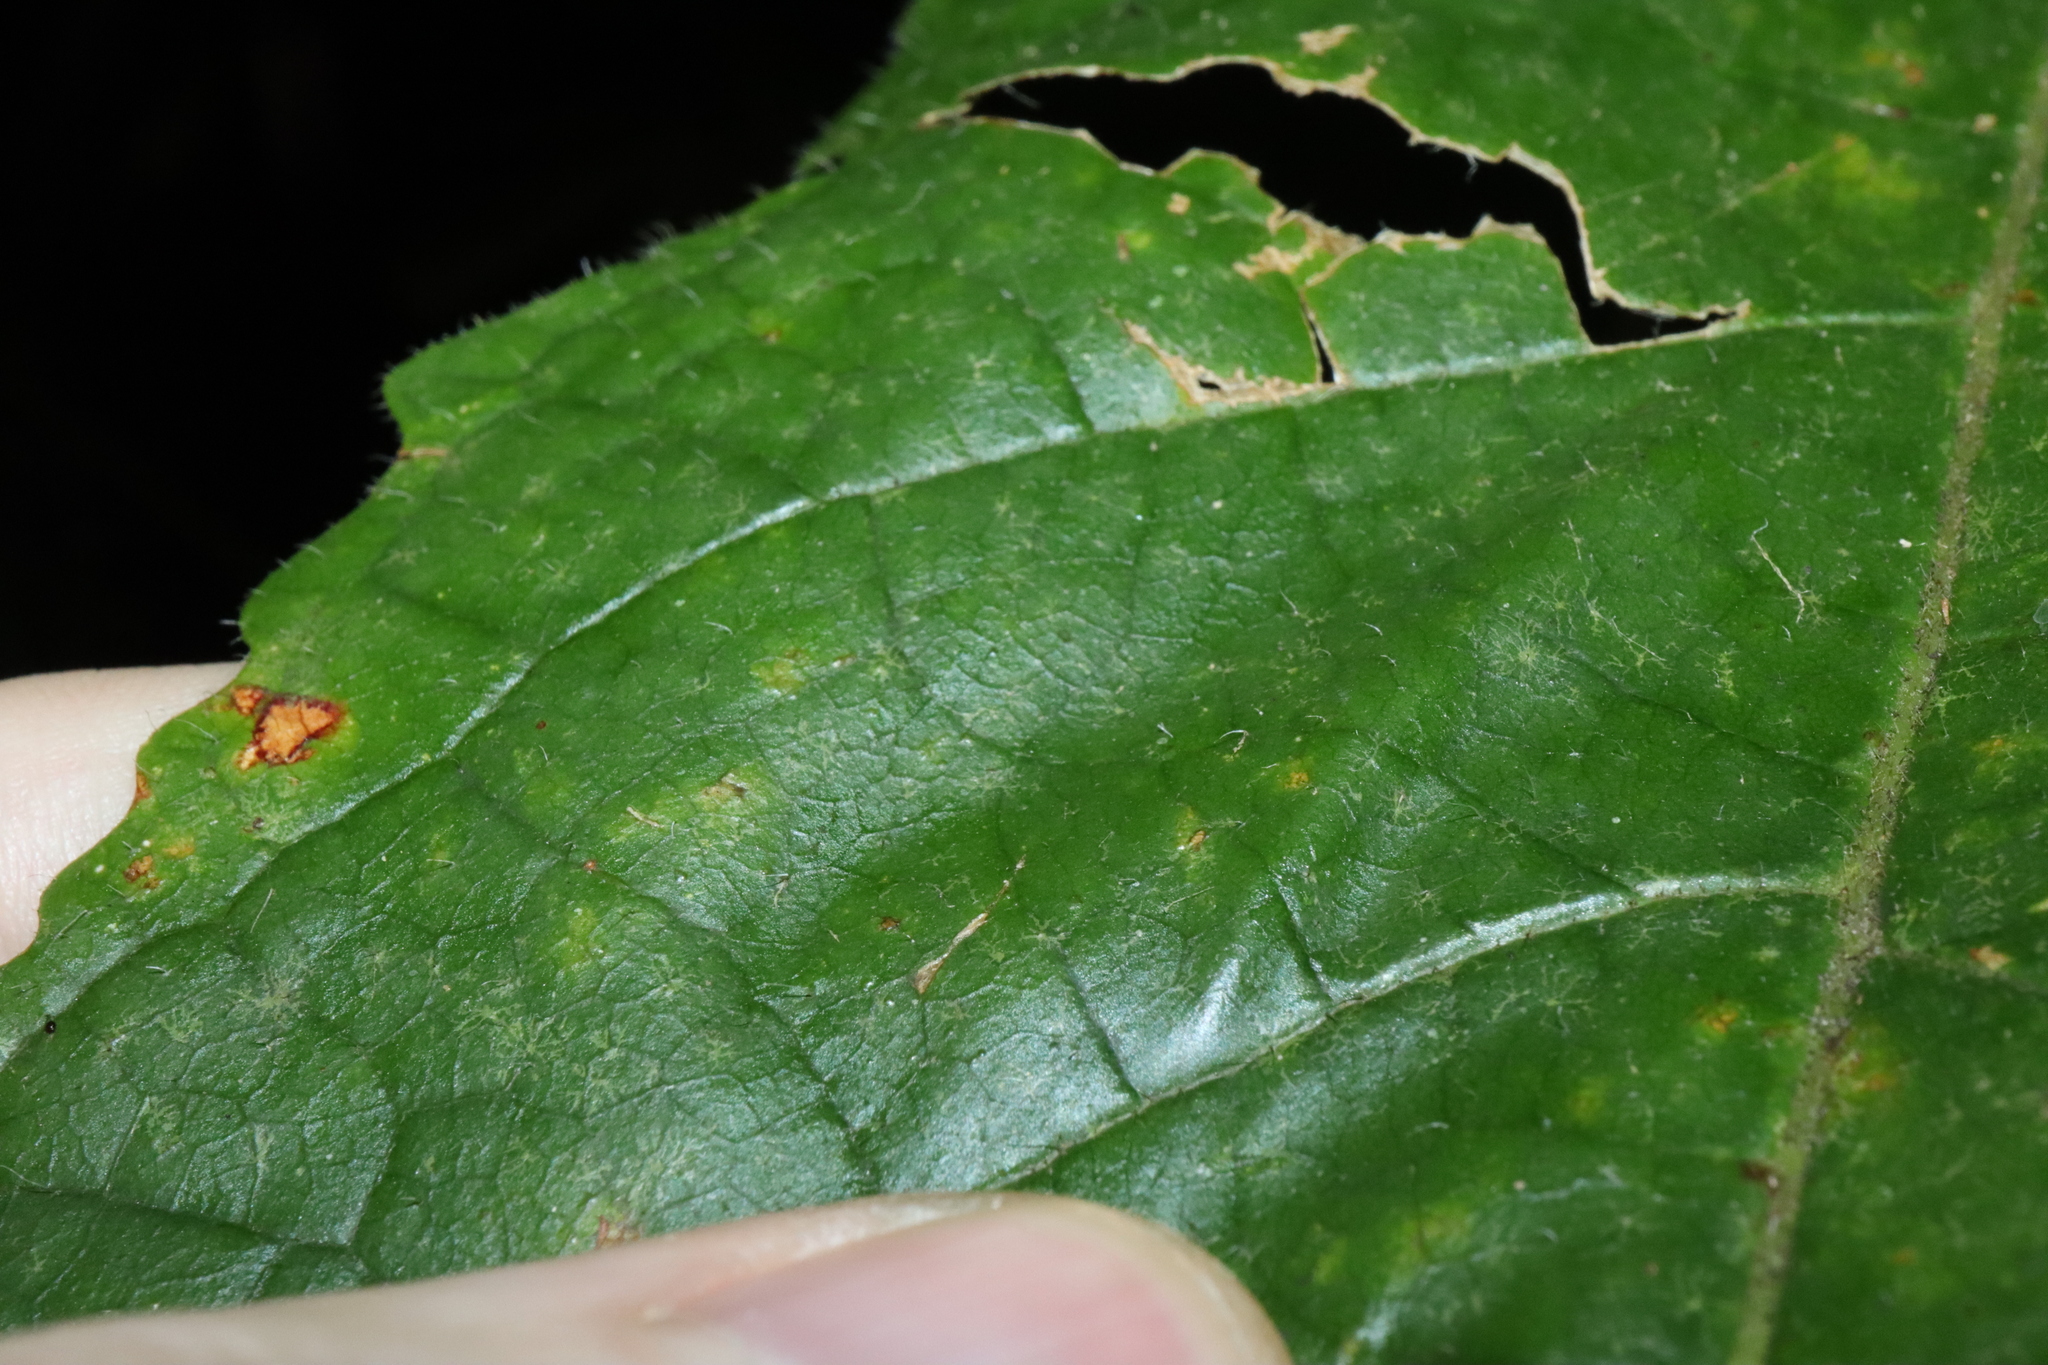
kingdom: Plantae
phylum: Tracheophyta
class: Magnoliopsida
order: Lamiales
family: Bignoniaceae
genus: Deplanchea
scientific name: Deplanchea tetraphylla
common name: Deplanchea
